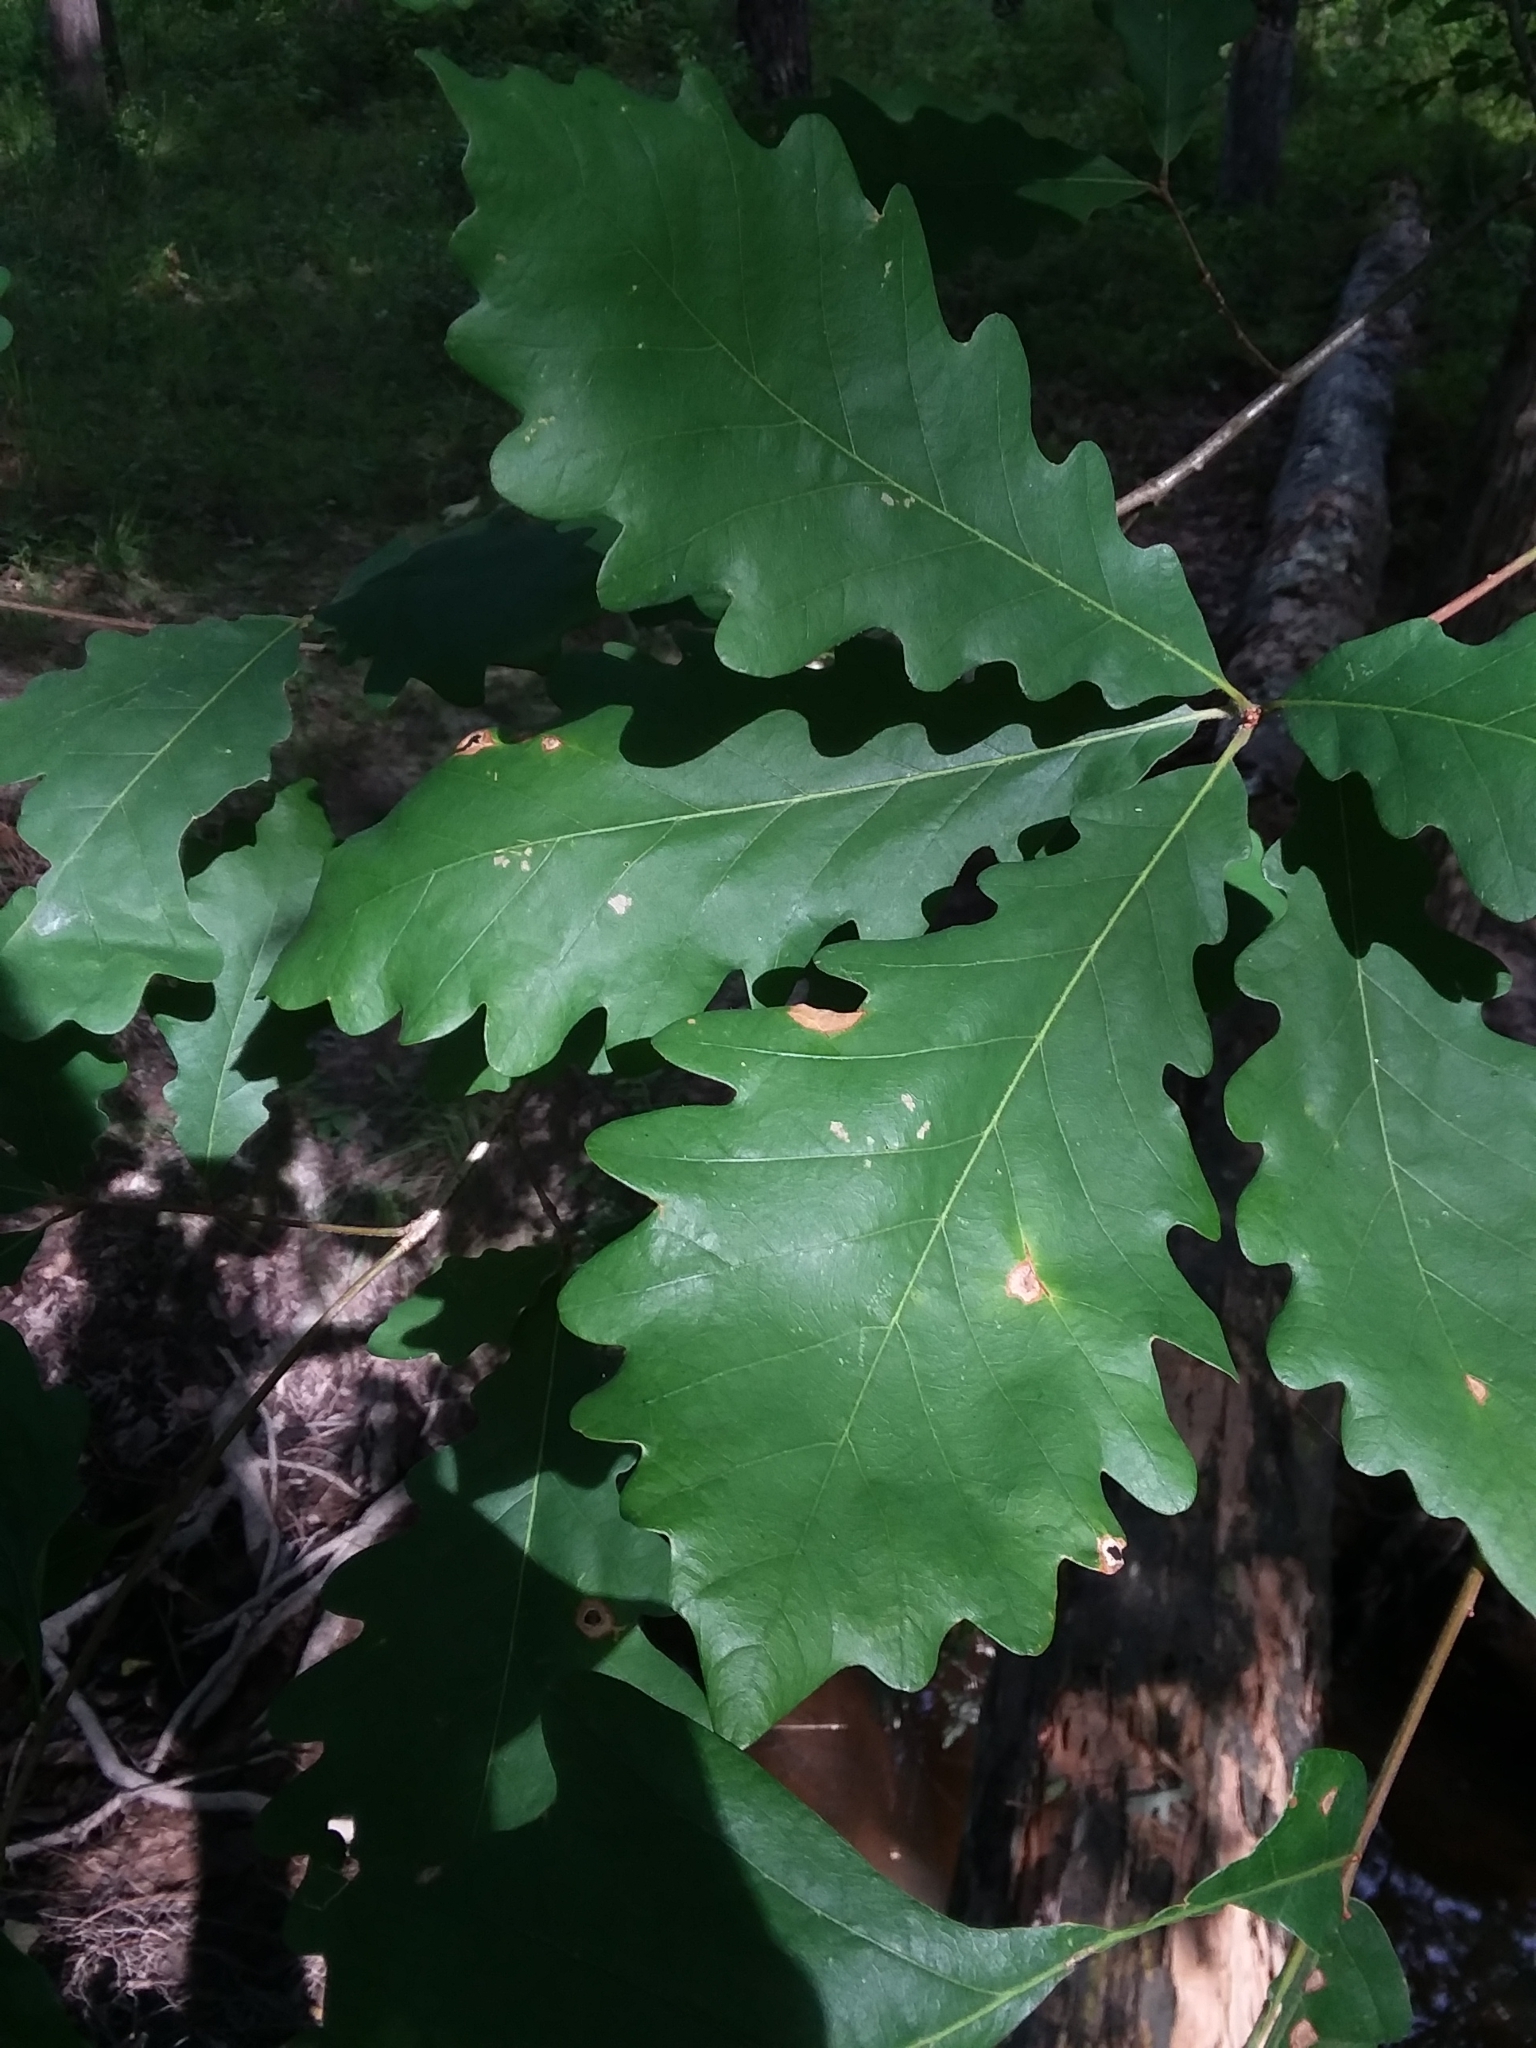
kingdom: Plantae
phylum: Tracheophyta
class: Magnoliopsida
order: Fagales
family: Fagaceae
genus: Quercus
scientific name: Quercus michauxii
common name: Swamp chestnut oak
